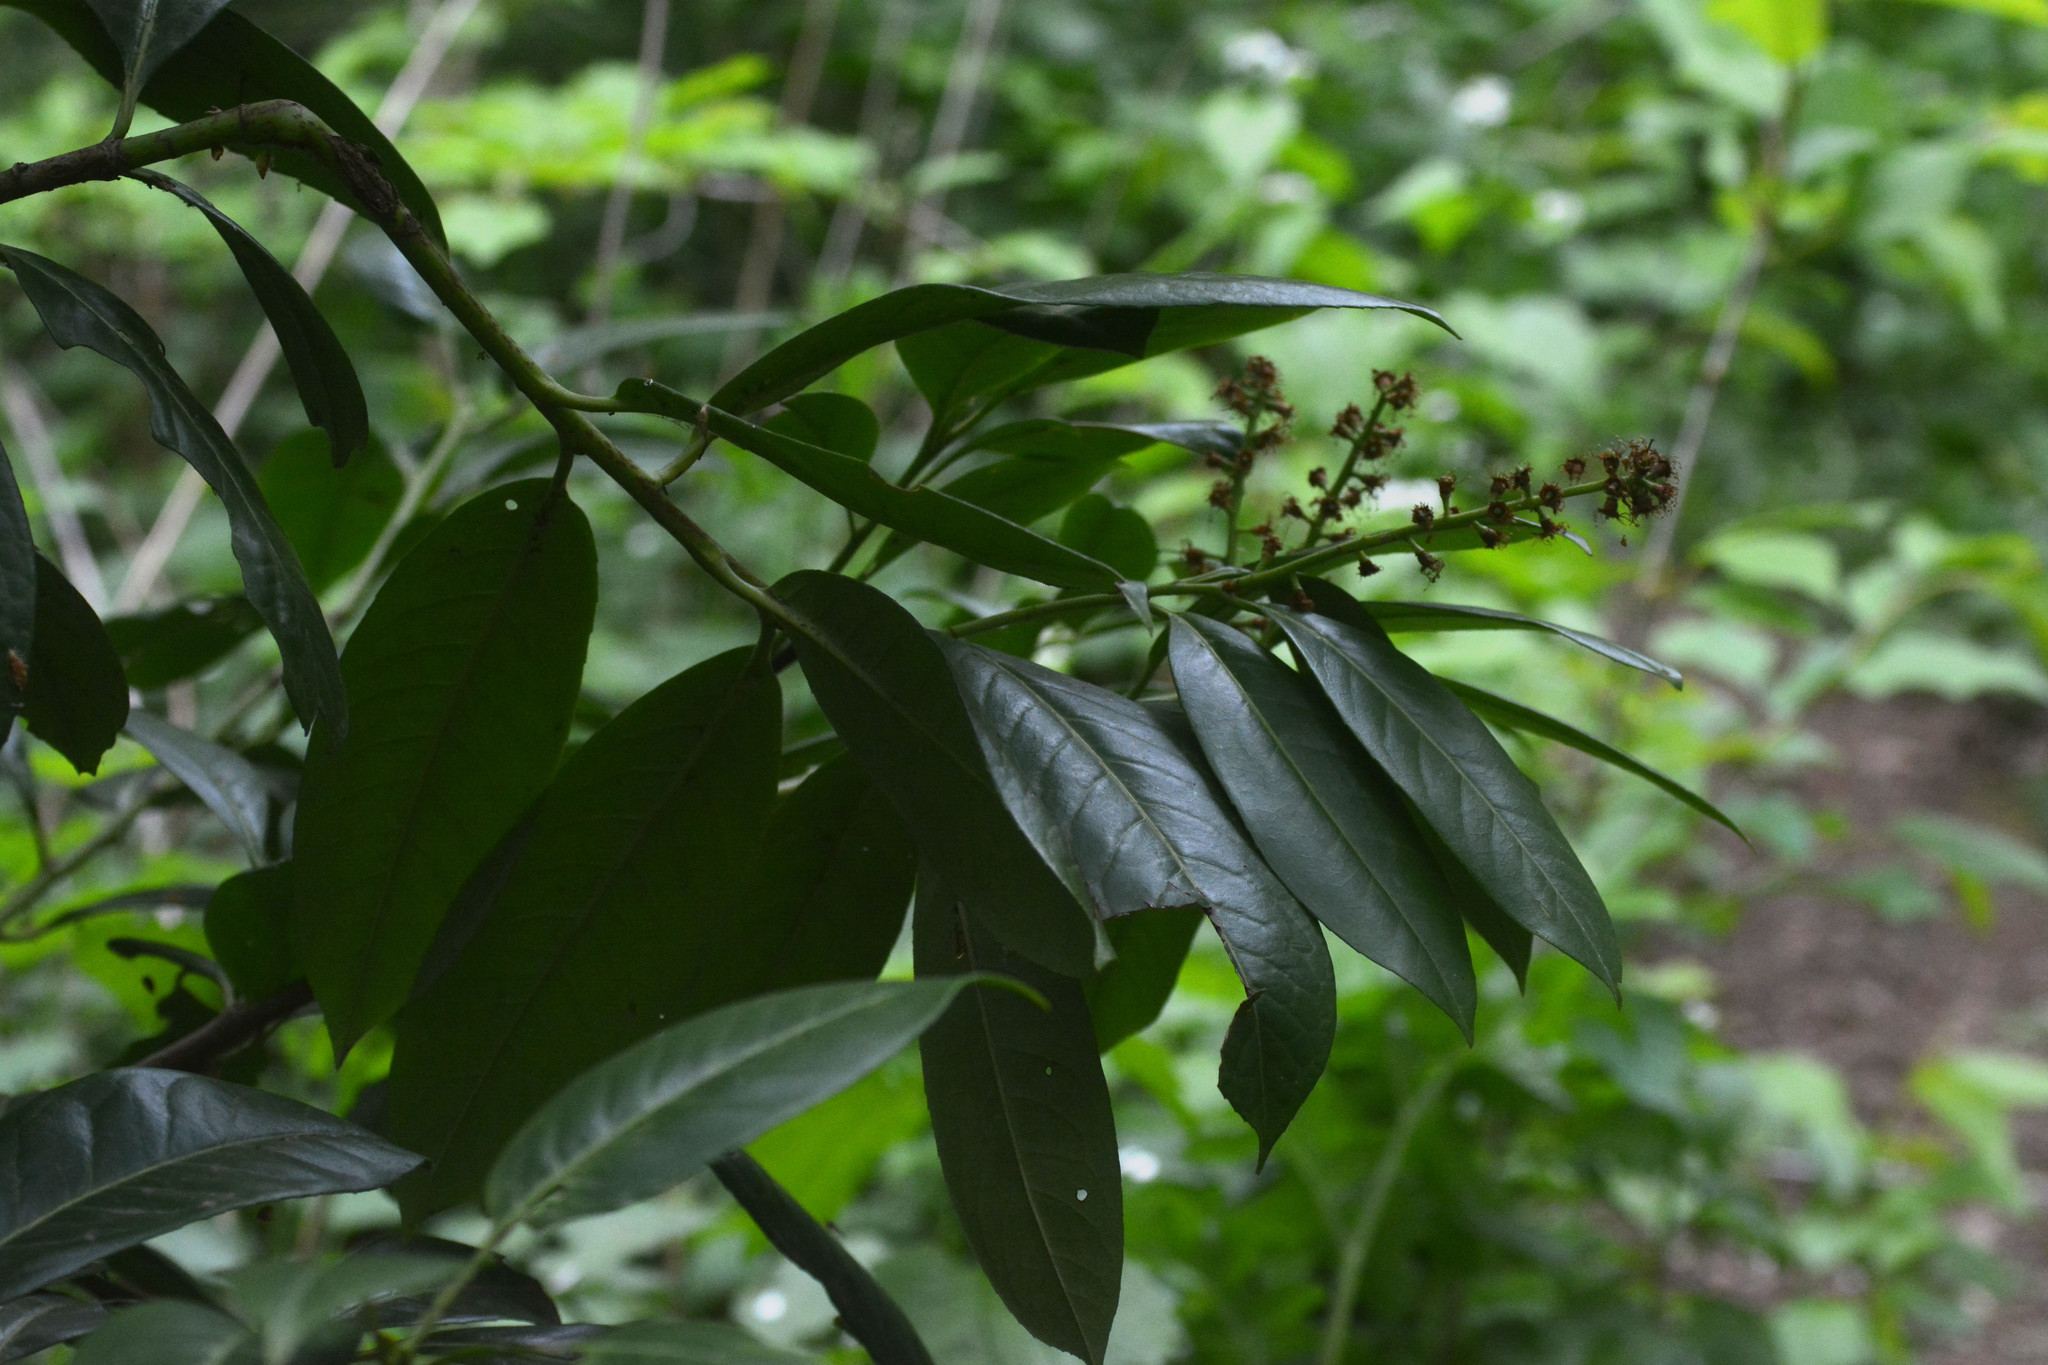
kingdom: Plantae
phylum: Tracheophyta
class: Magnoliopsida
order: Rosales
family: Rosaceae
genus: Prunus
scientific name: Prunus laurocerasus
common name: Cherry laurel
